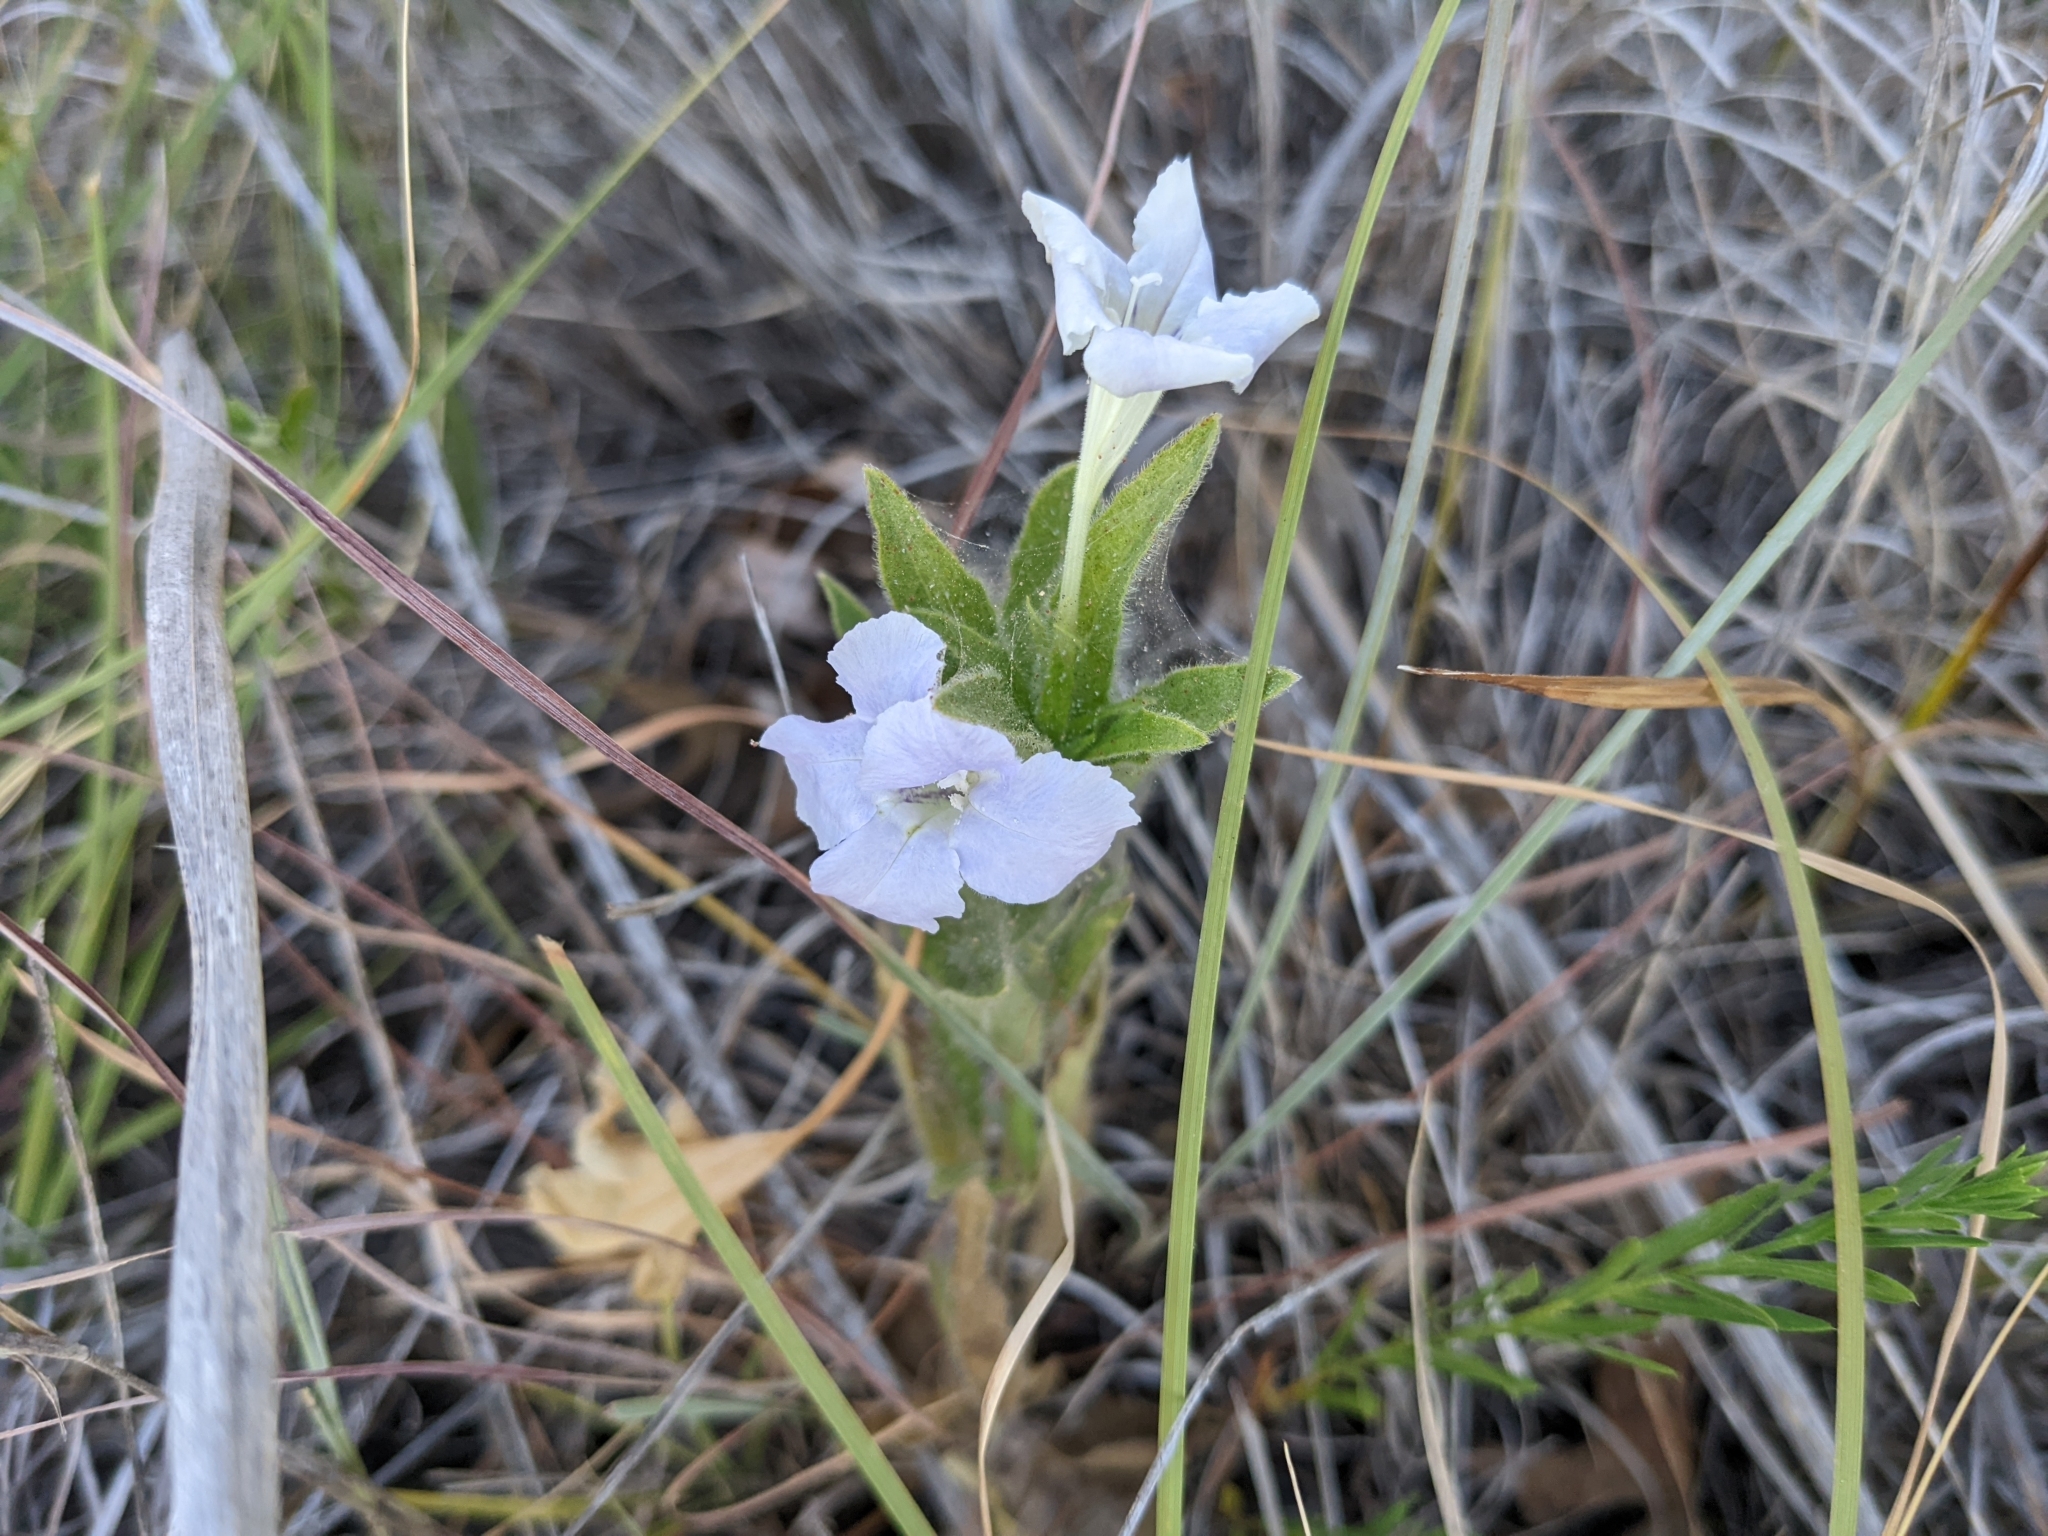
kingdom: Plantae
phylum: Tracheophyta
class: Magnoliopsida
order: Lamiales
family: Acanthaceae
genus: Ruellia
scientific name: Ruellia humilis
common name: Fringe-leaf ruellia
